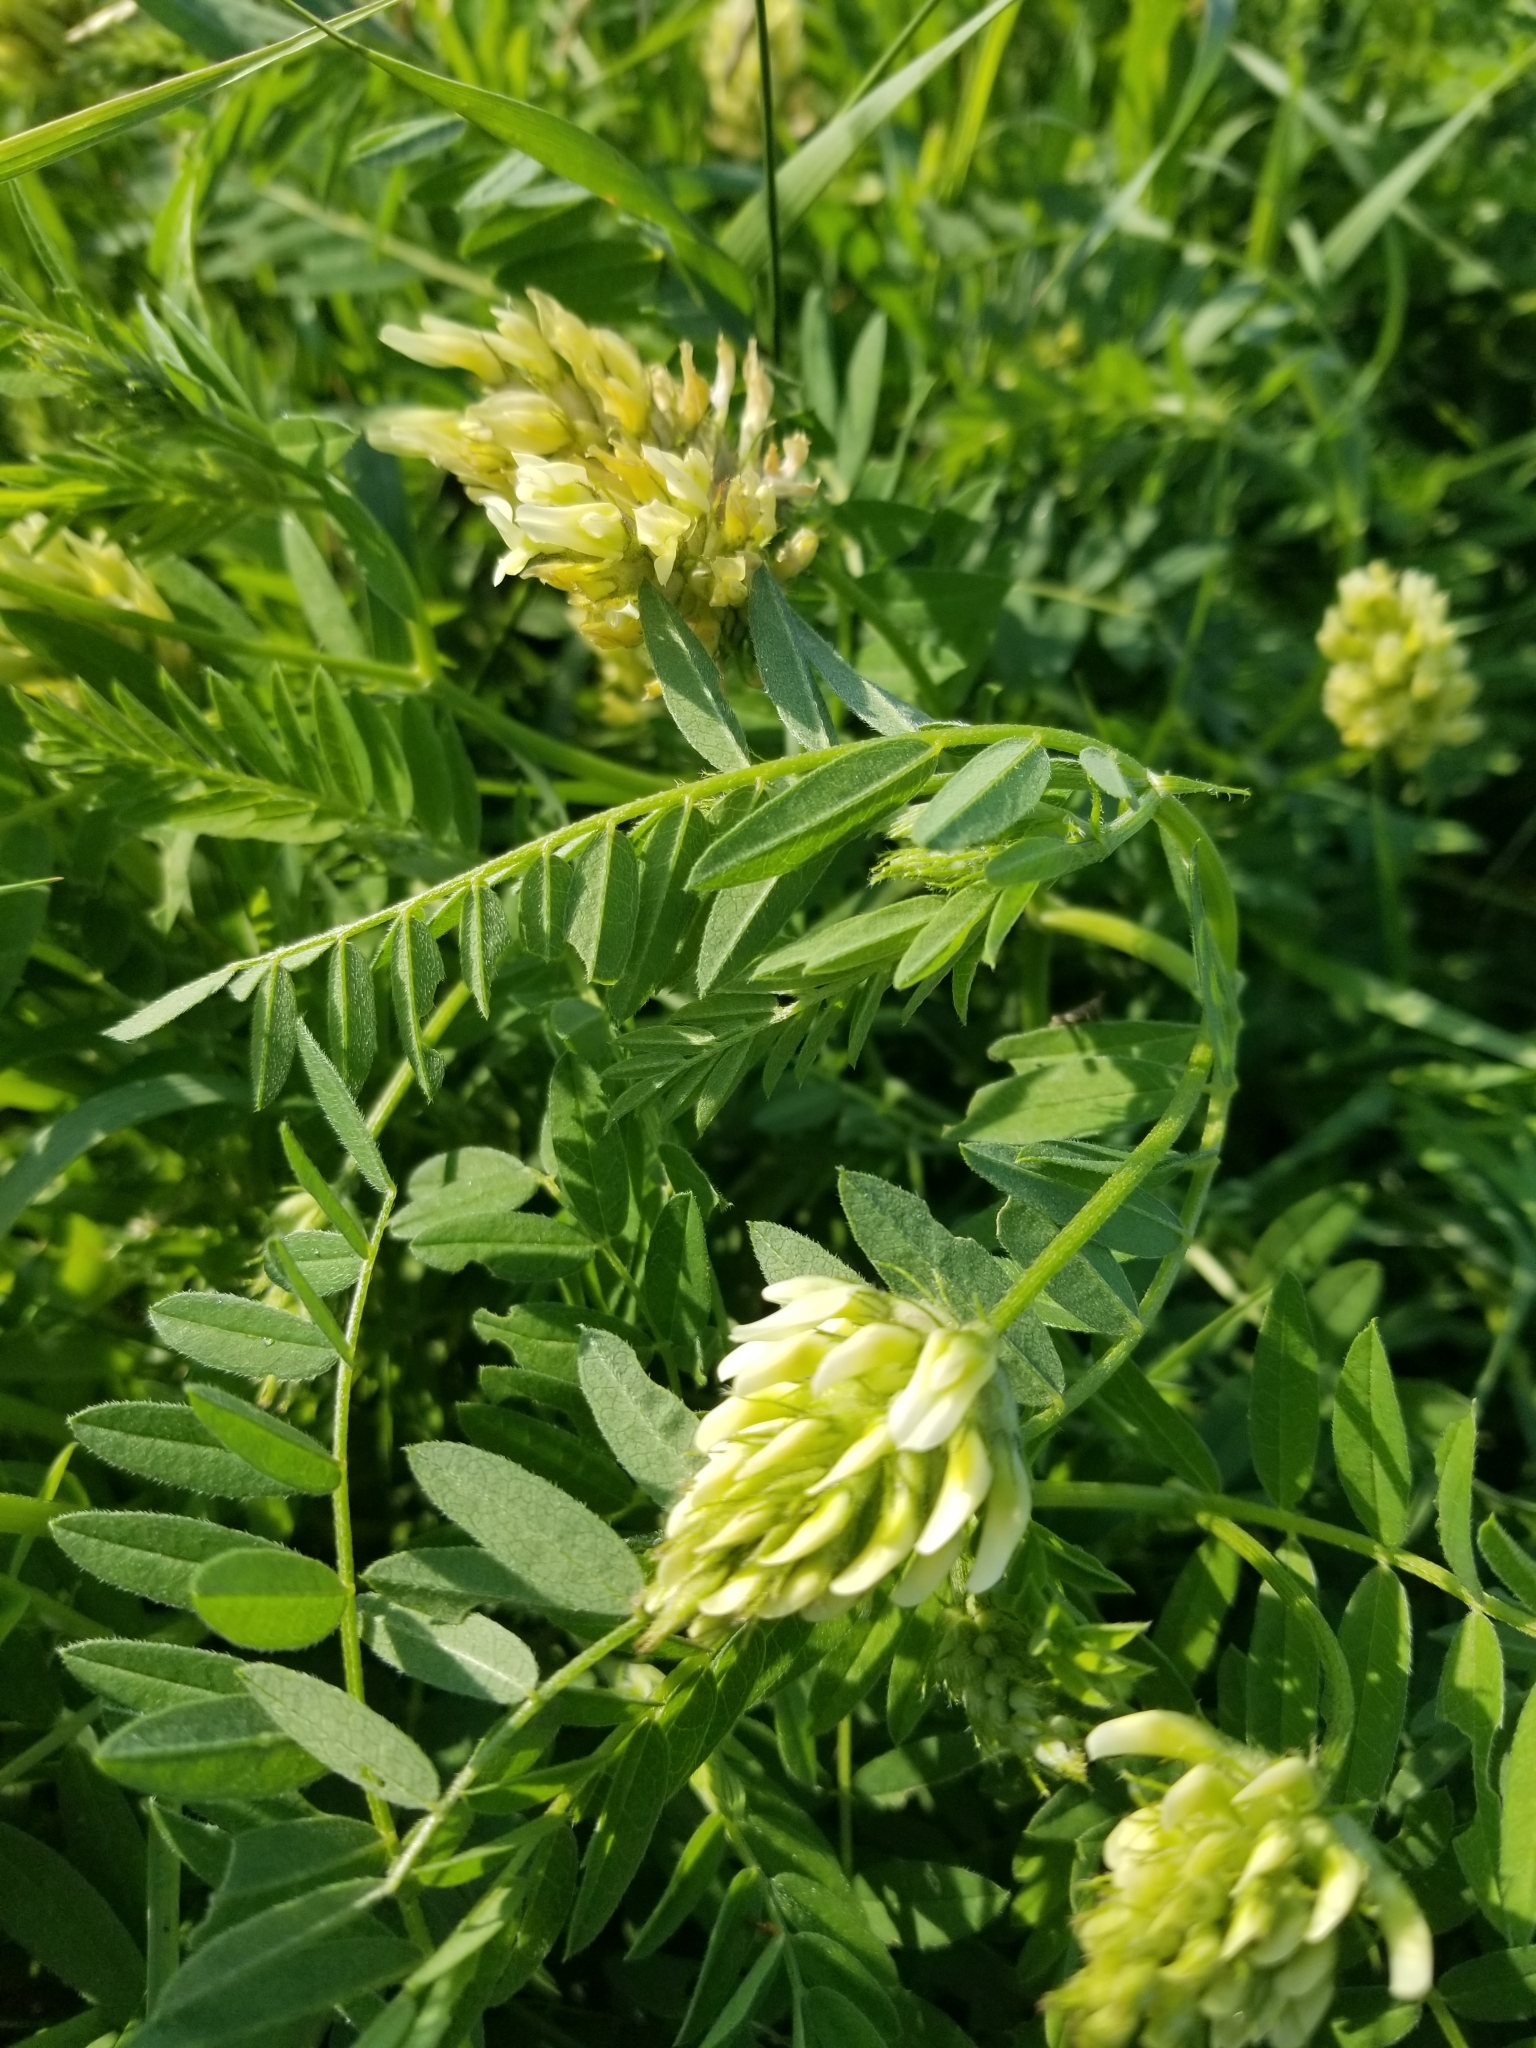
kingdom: Plantae
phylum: Tracheophyta
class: Magnoliopsida
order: Fabales
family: Fabaceae
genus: Astragalus
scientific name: Astragalus cicer
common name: Chick-pea milk-vetch
